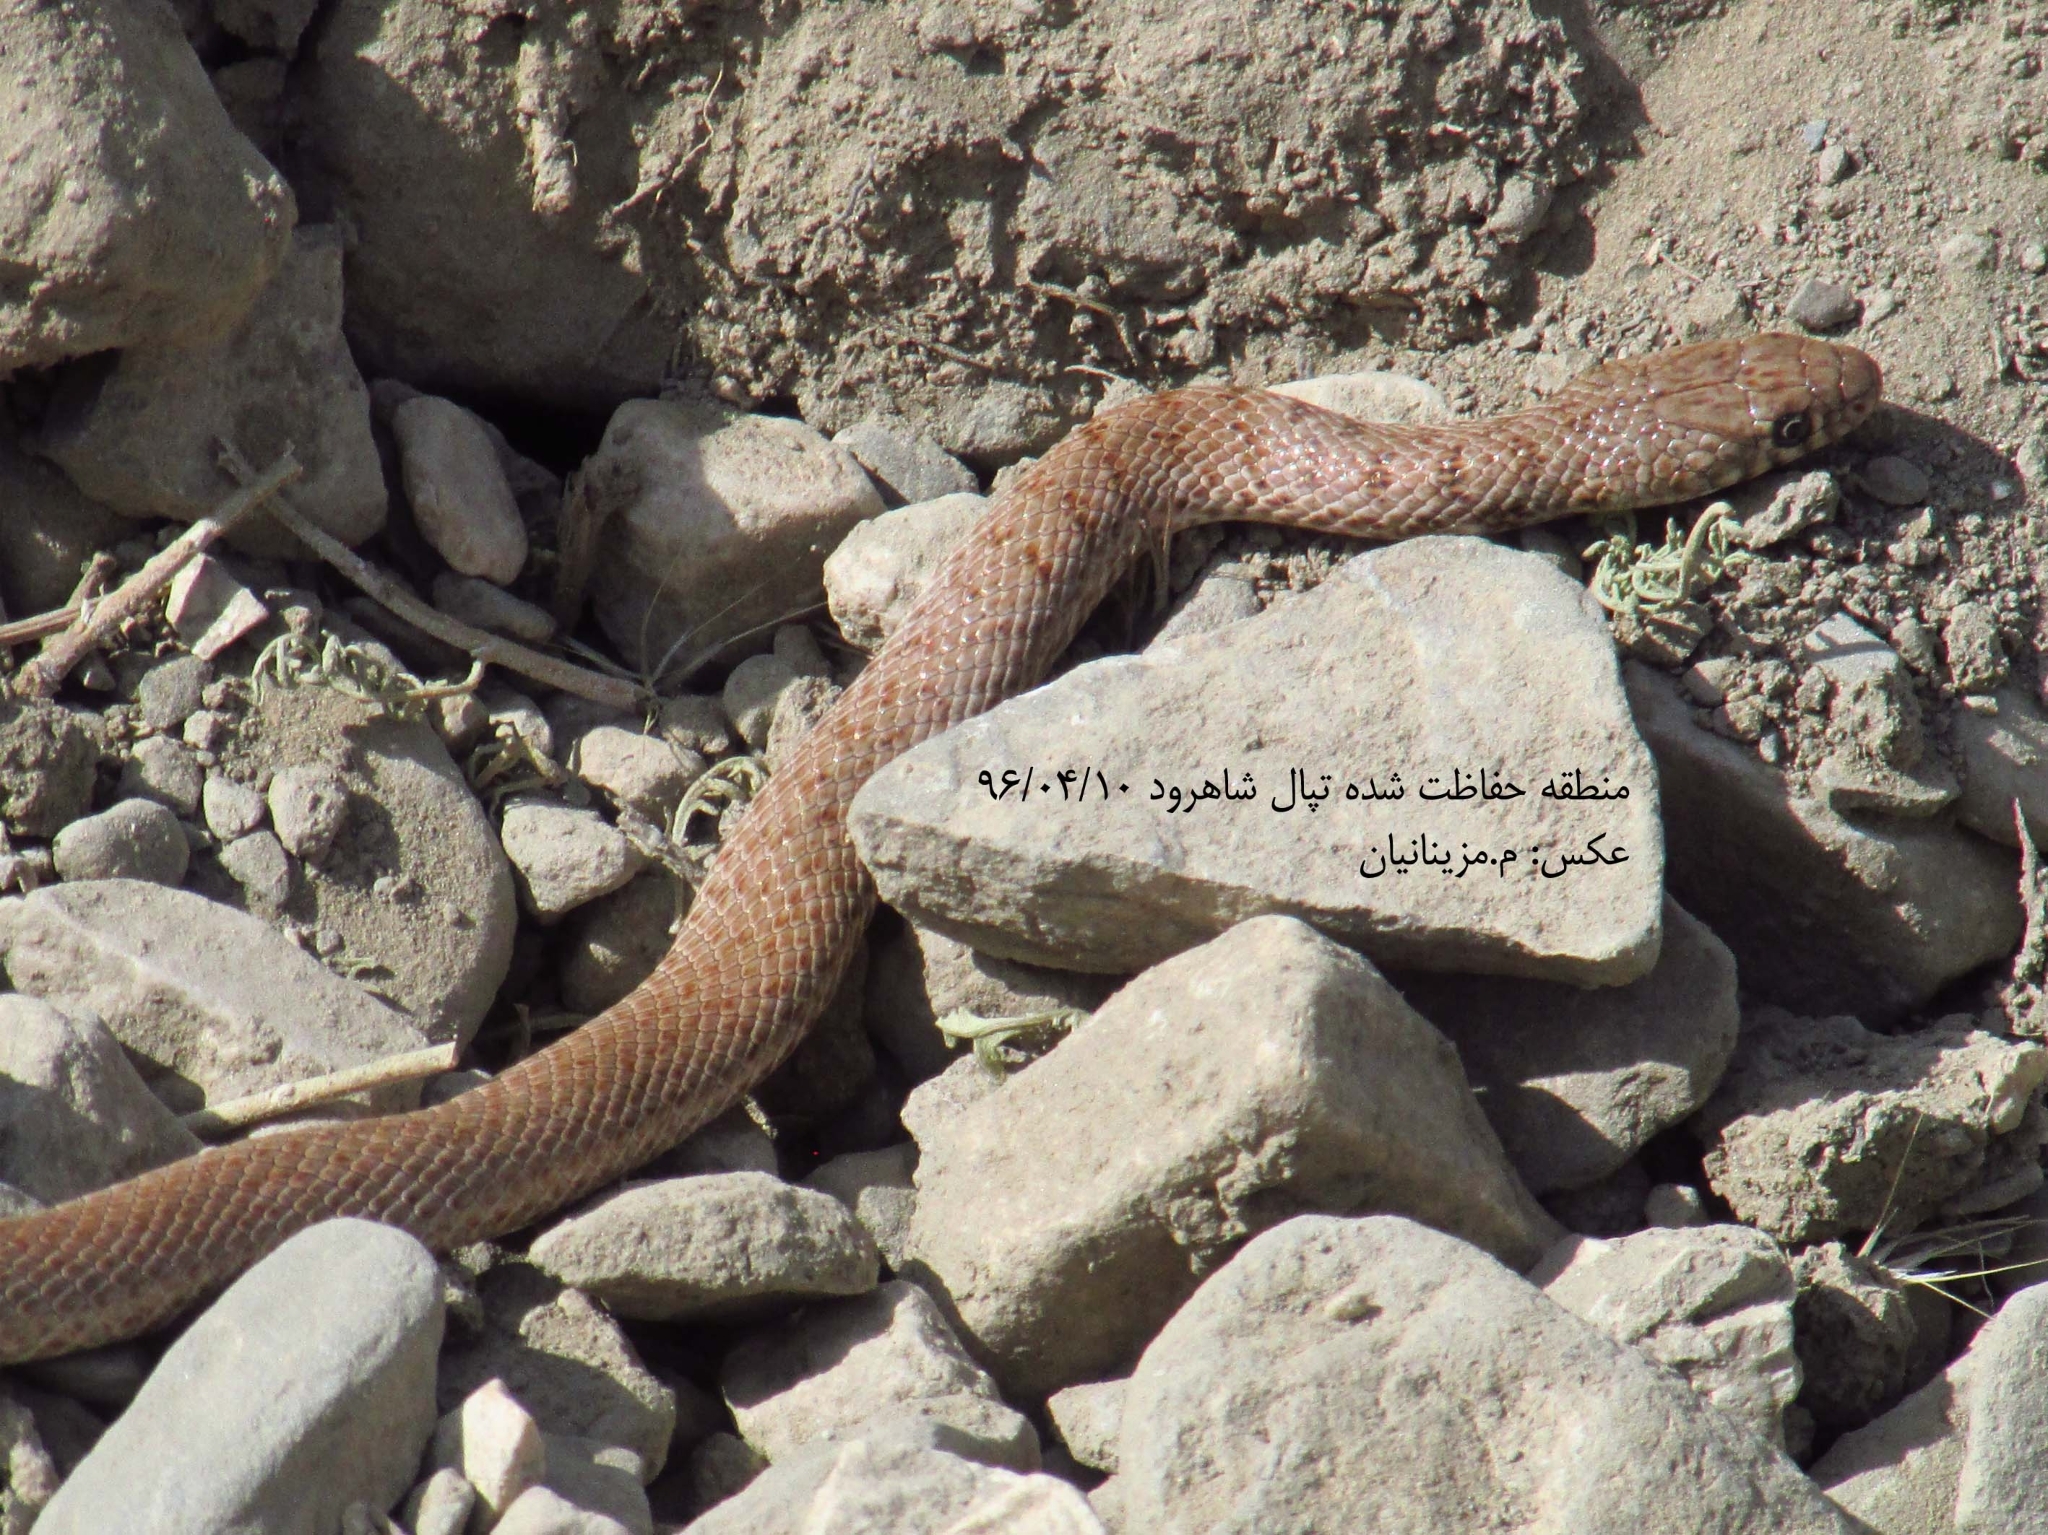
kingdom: Animalia
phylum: Chordata
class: Squamata
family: Colubridae
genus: Eirenis
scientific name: Eirenis punctatolineatus
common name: Dotted dwarf snake
